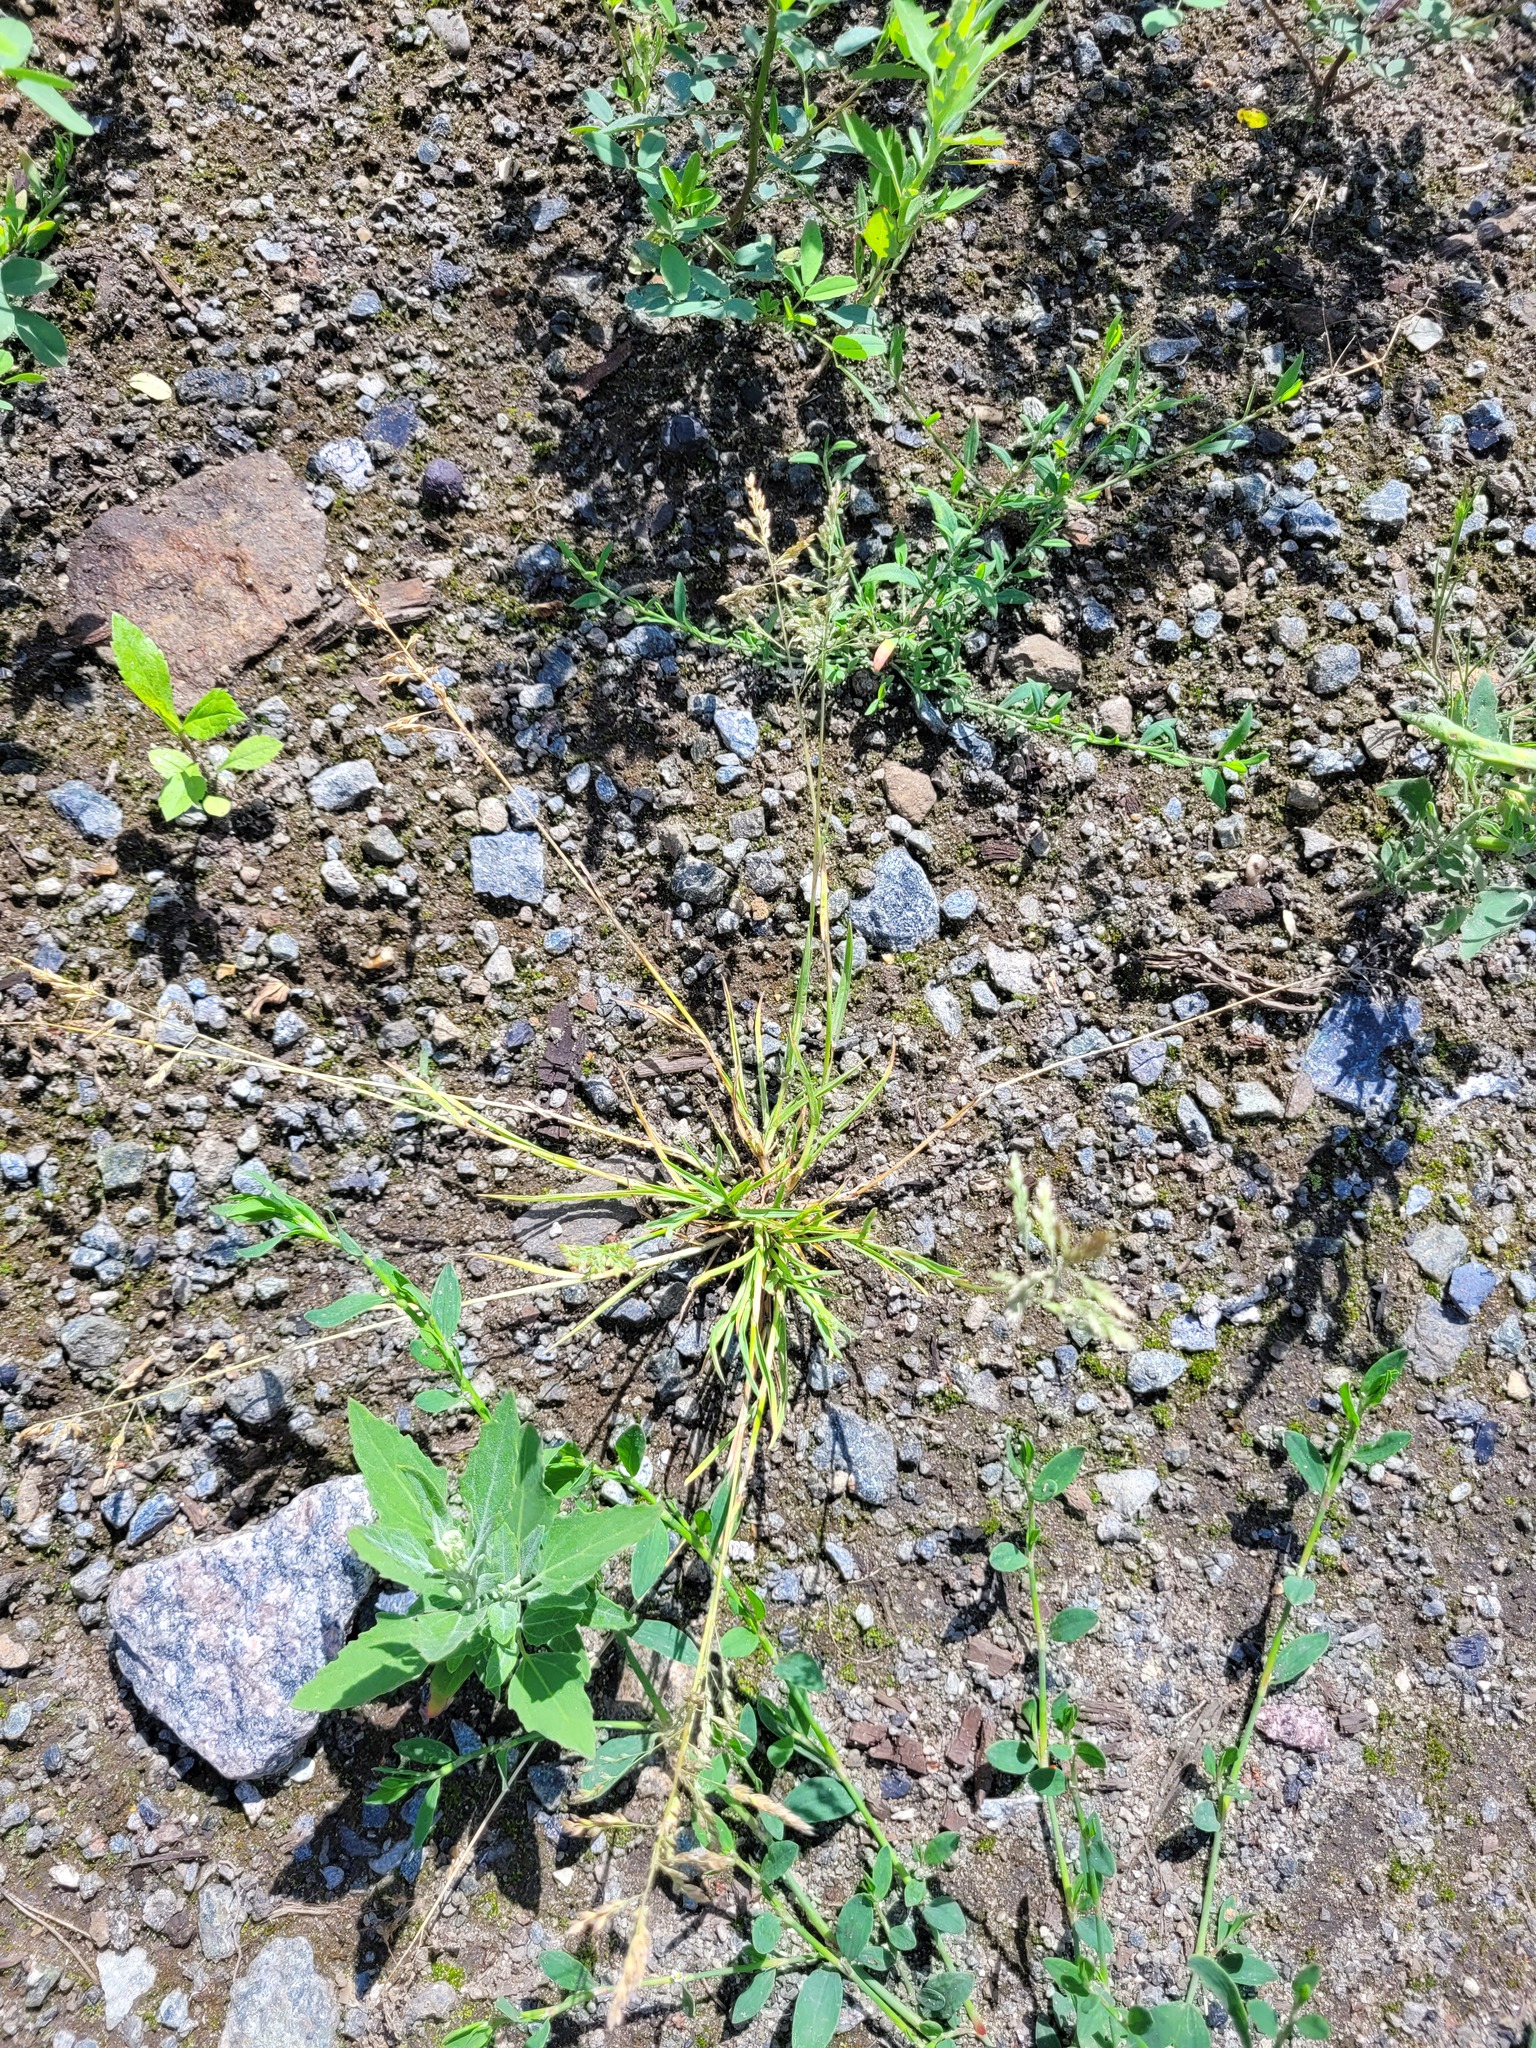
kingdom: Plantae
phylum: Tracheophyta
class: Liliopsida
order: Poales
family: Poaceae
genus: Poa
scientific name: Poa annua
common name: Annual bluegrass
